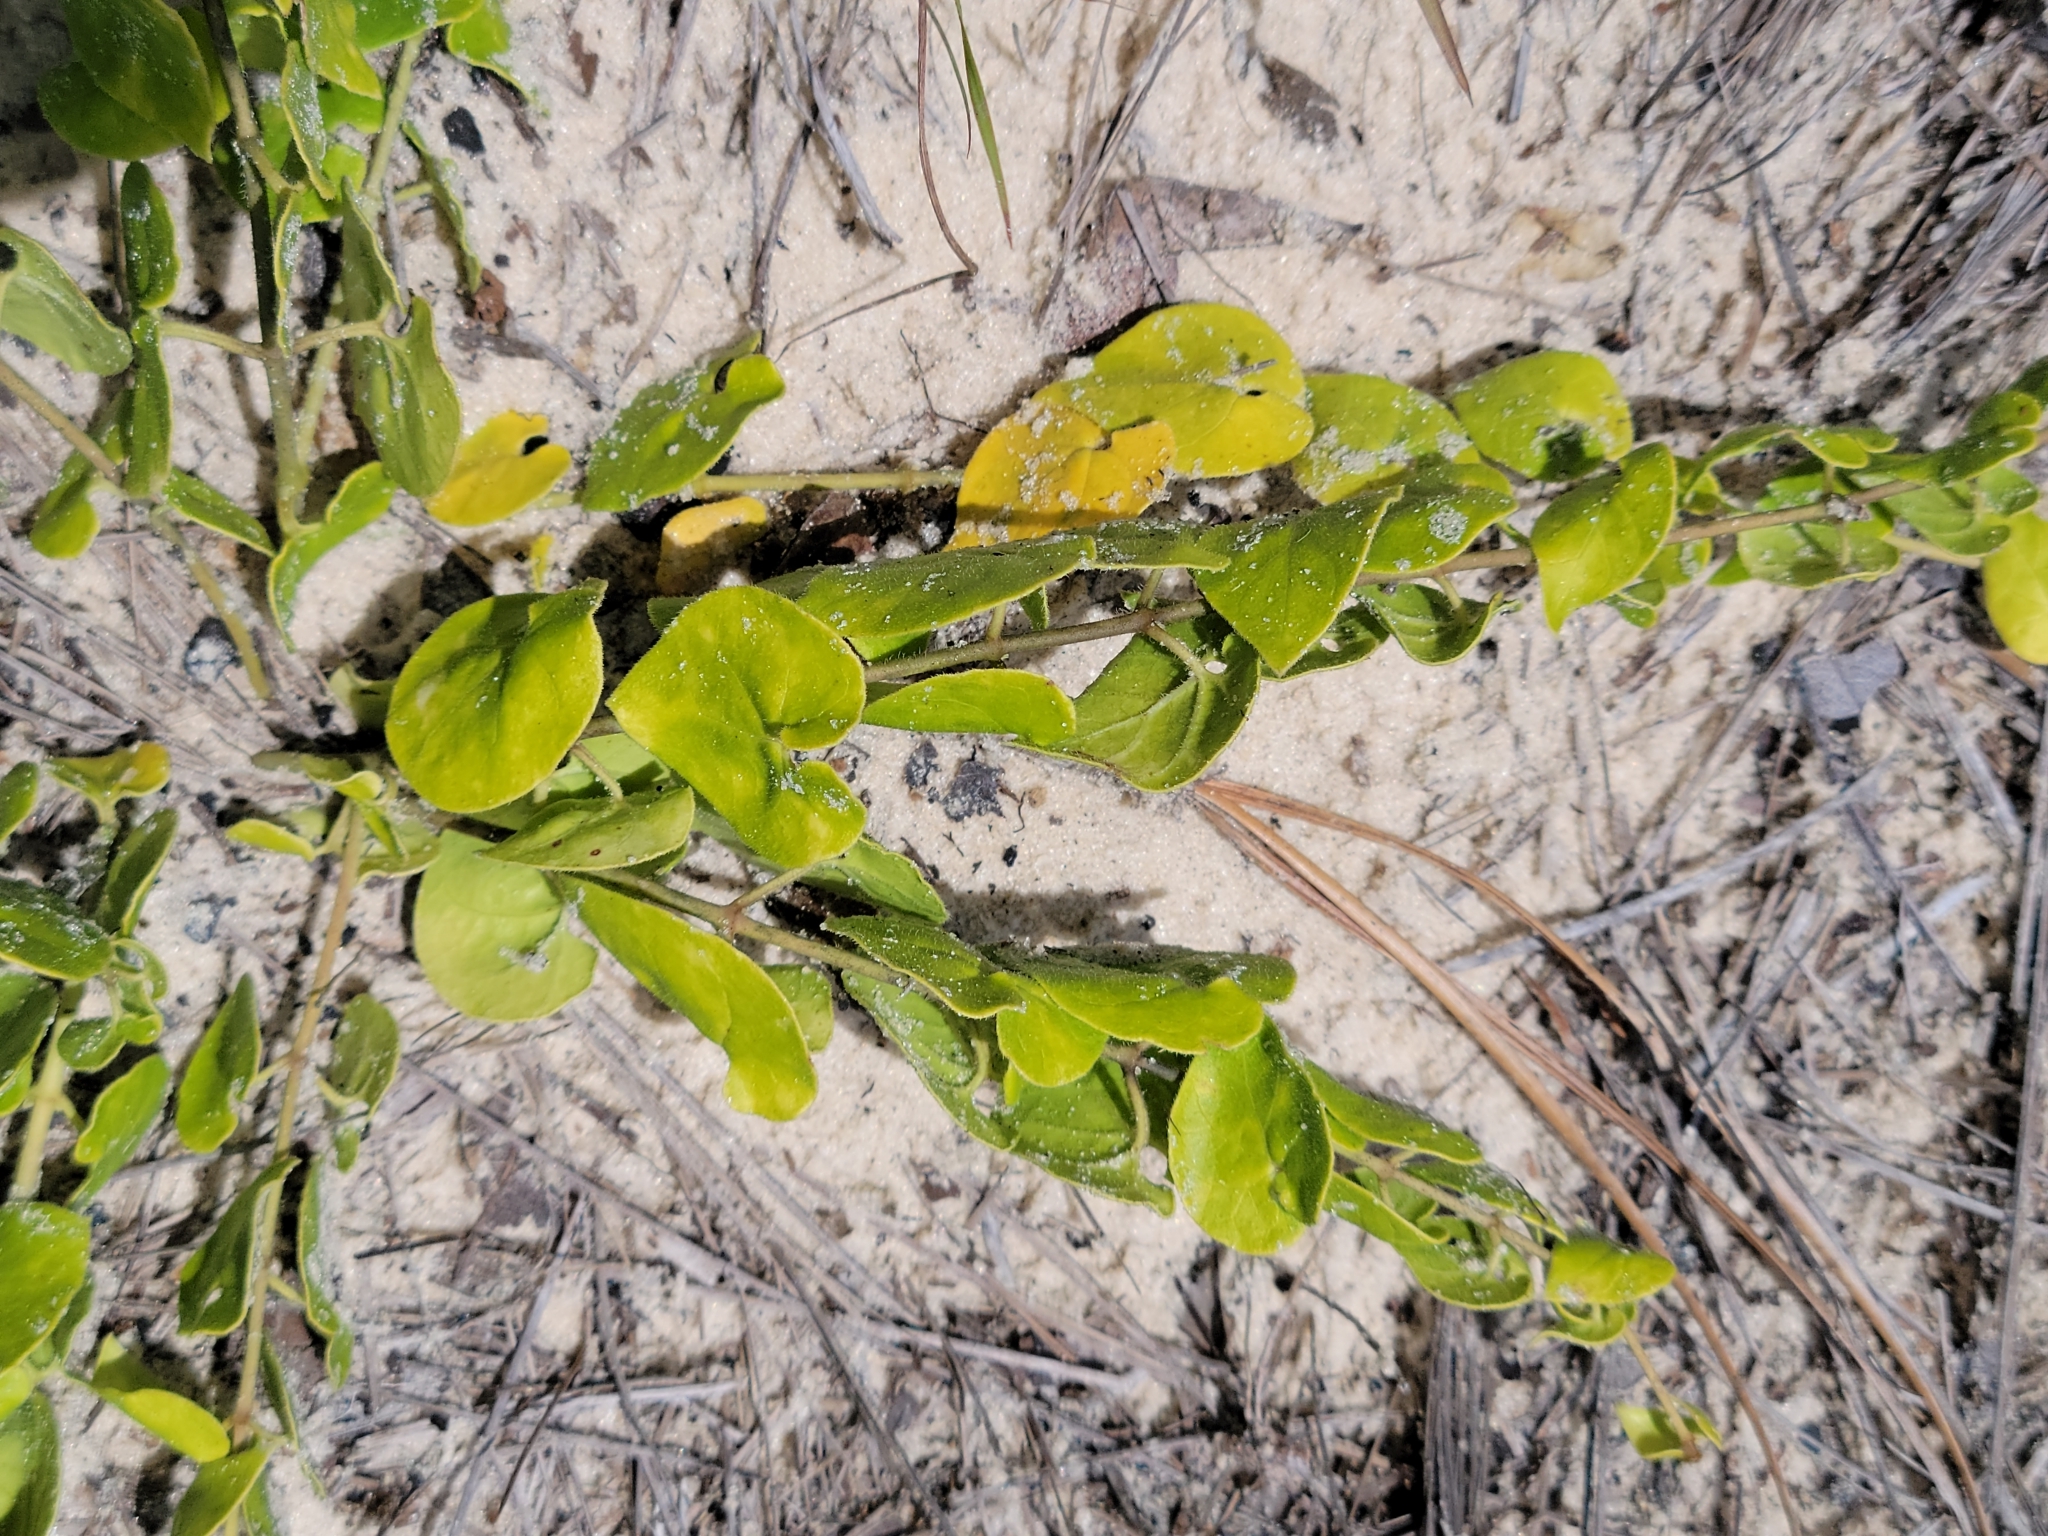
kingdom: Plantae
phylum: Tracheophyta
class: Magnoliopsida
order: Gentianales
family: Apocynaceae
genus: Chthamalia
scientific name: Chthamalia pubiflora
